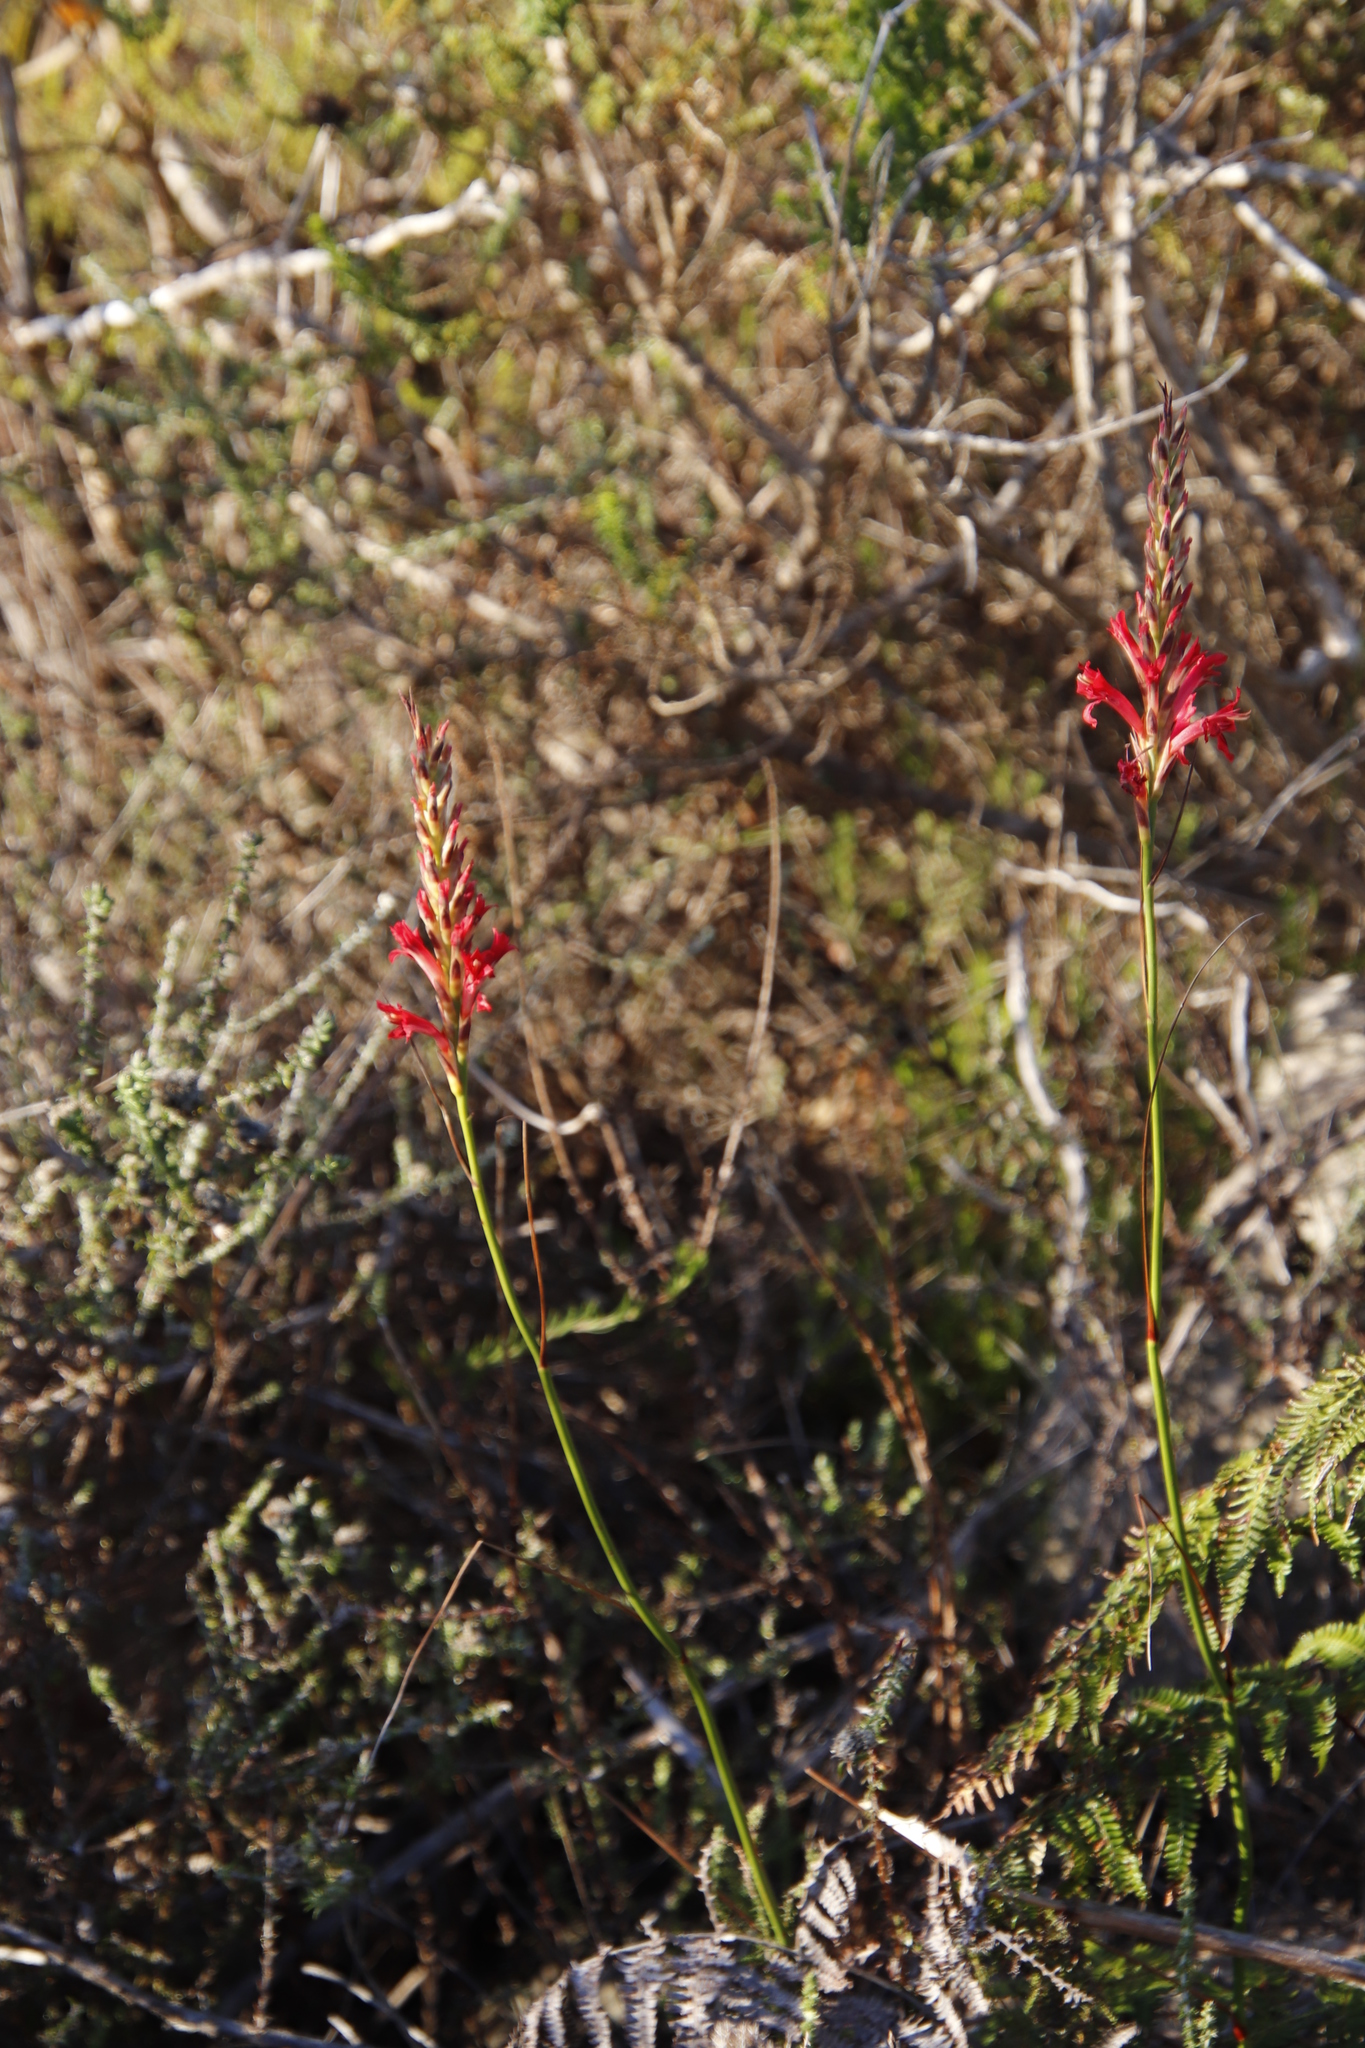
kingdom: Plantae
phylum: Tracheophyta
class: Liliopsida
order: Asparagales
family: Iridaceae
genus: Tritoniopsis
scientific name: Tritoniopsis triticea
